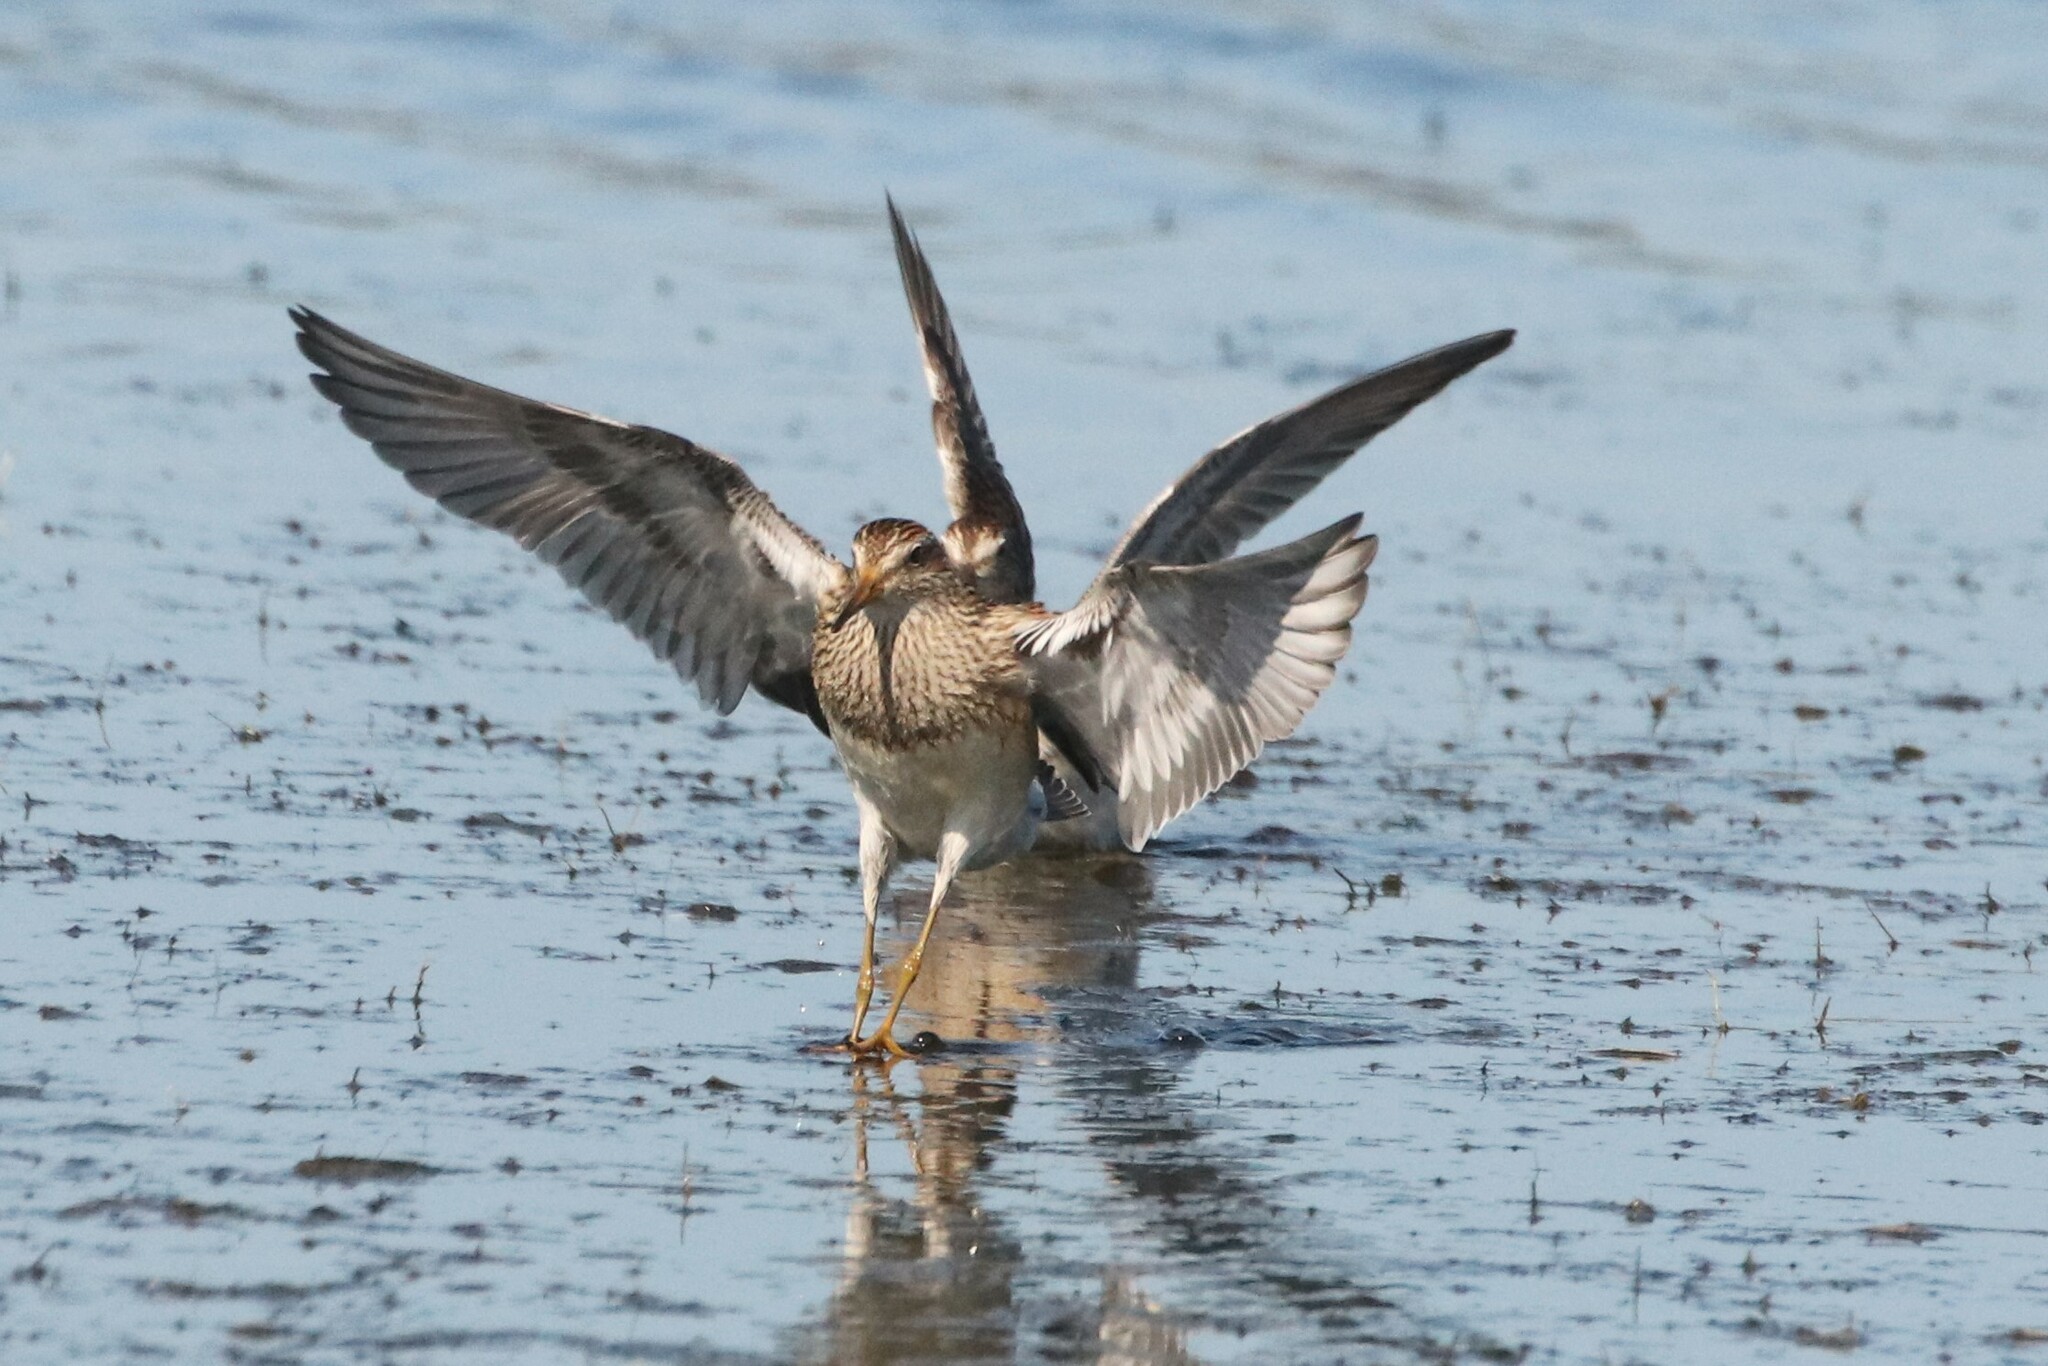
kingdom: Animalia
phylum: Chordata
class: Aves
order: Charadriiformes
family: Scolopacidae
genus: Calidris
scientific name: Calidris melanotos
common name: Pectoral sandpiper
